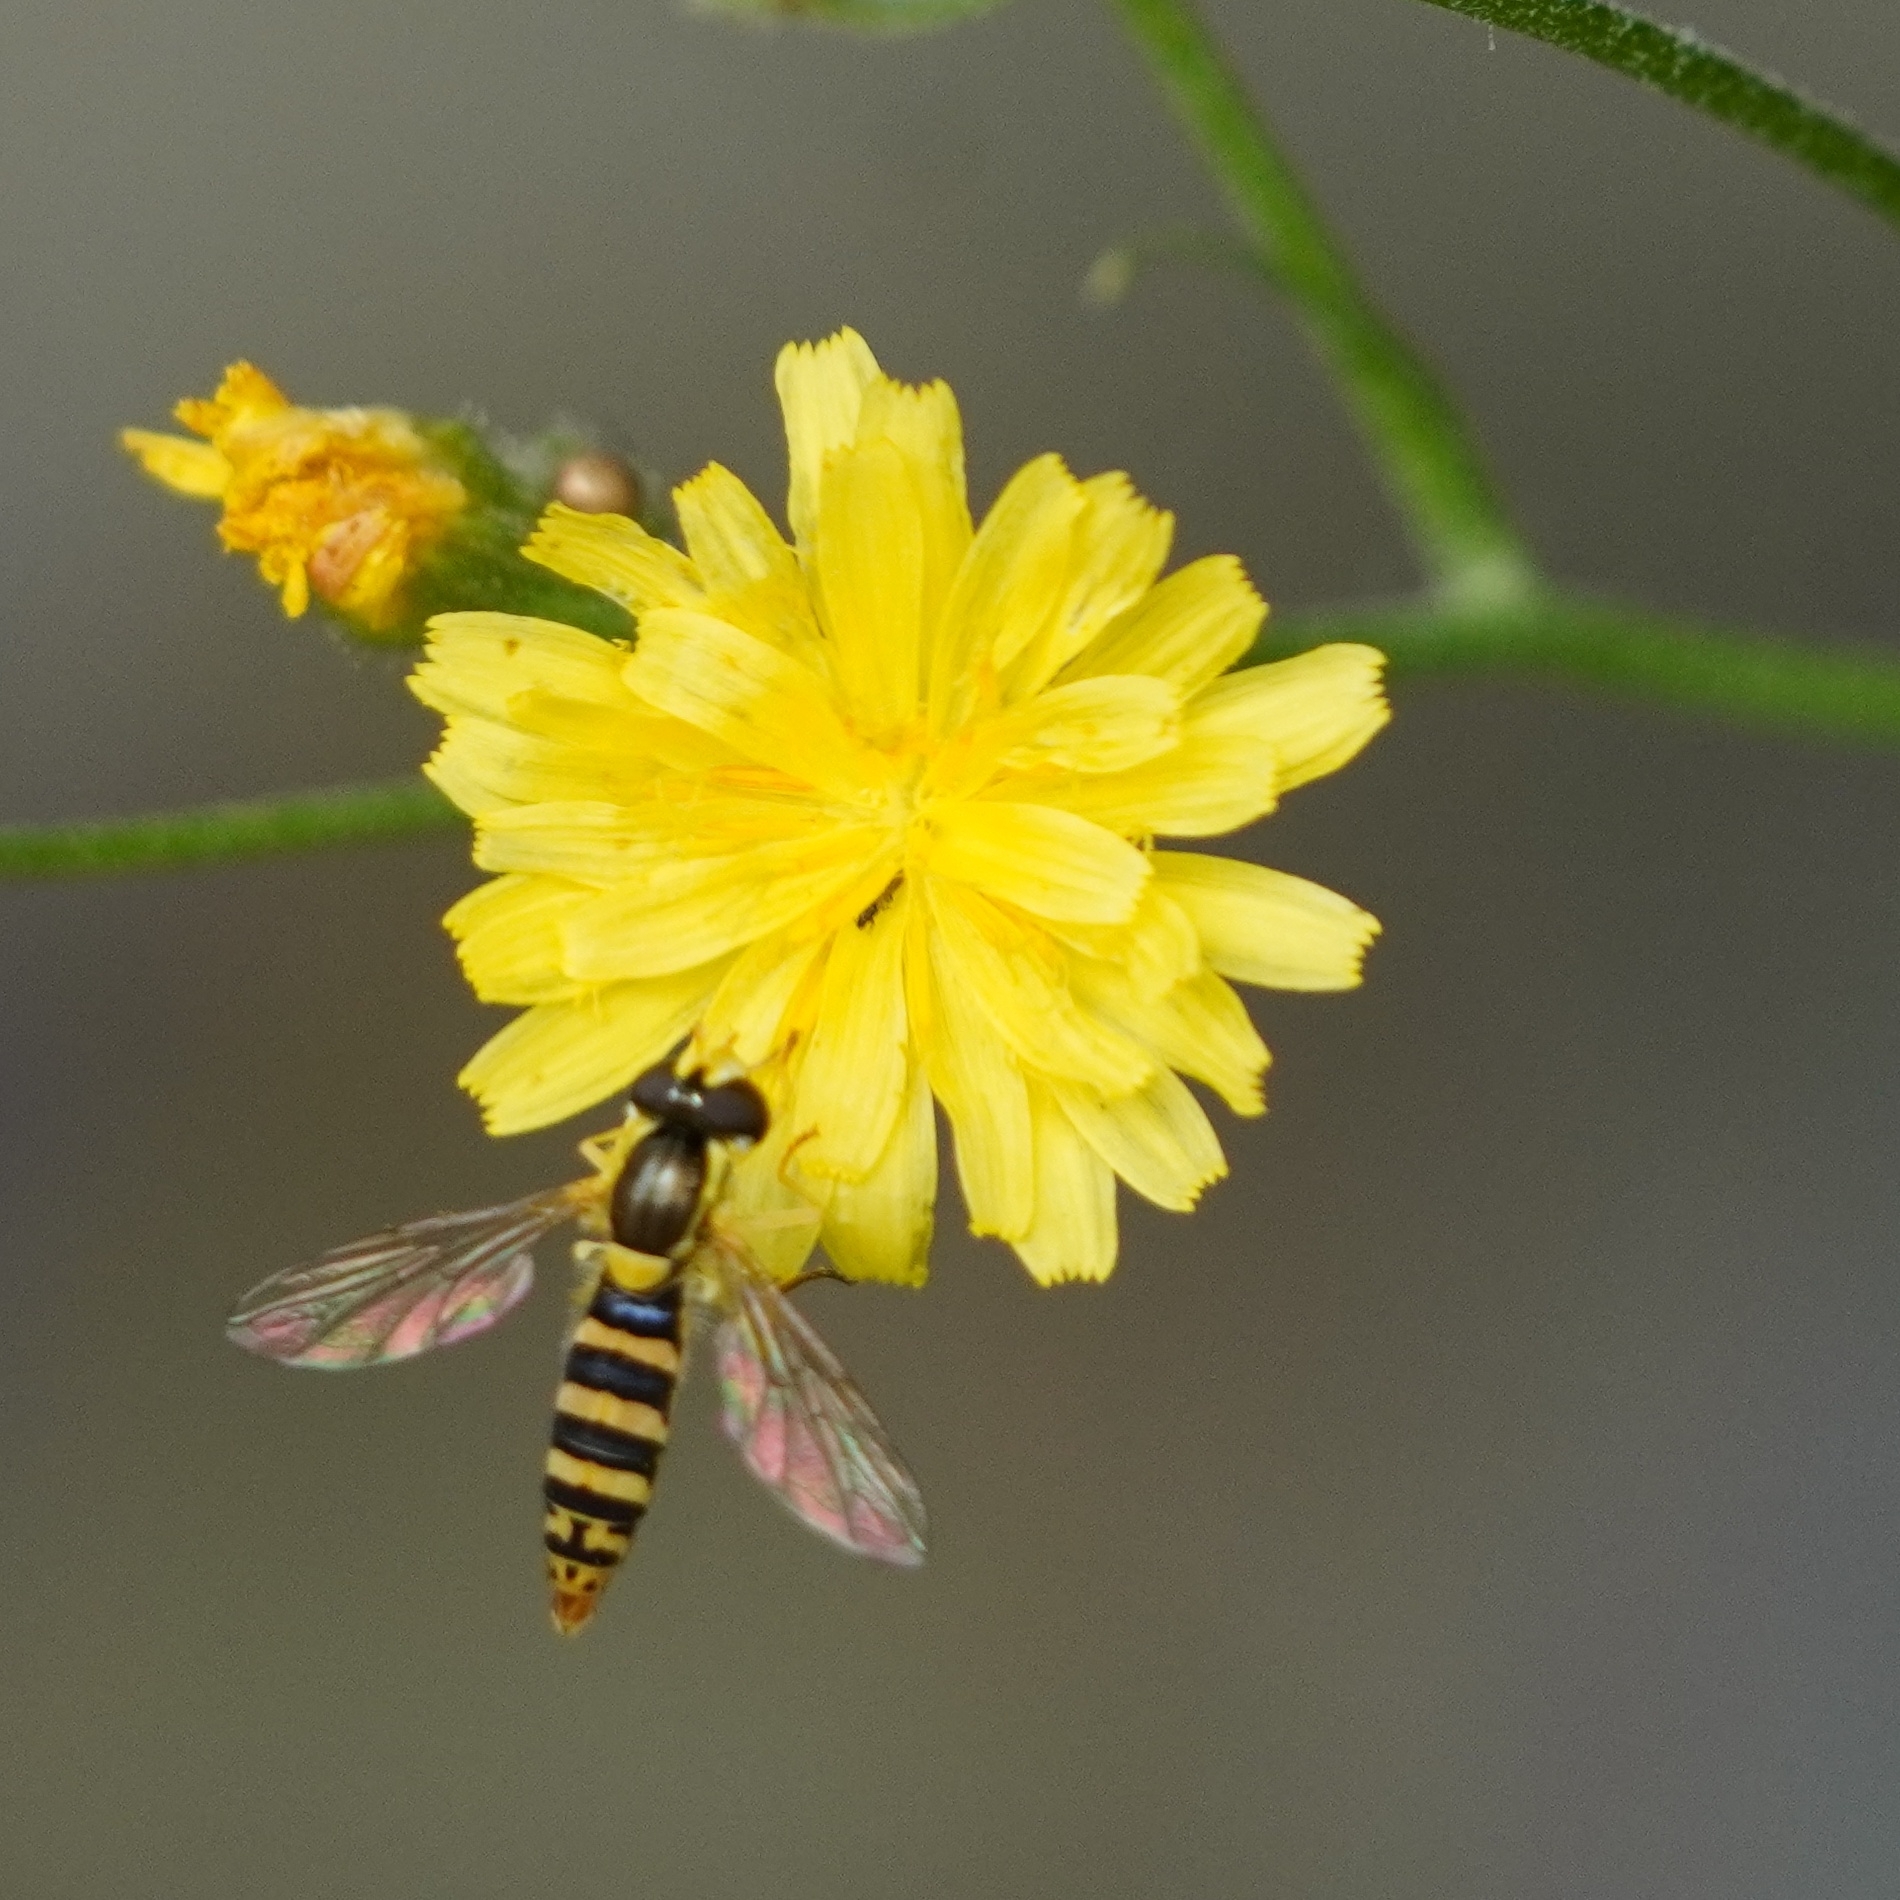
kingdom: Animalia
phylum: Arthropoda
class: Insecta
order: Diptera
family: Syrphidae
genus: Sphaerophoria
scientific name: Sphaerophoria
